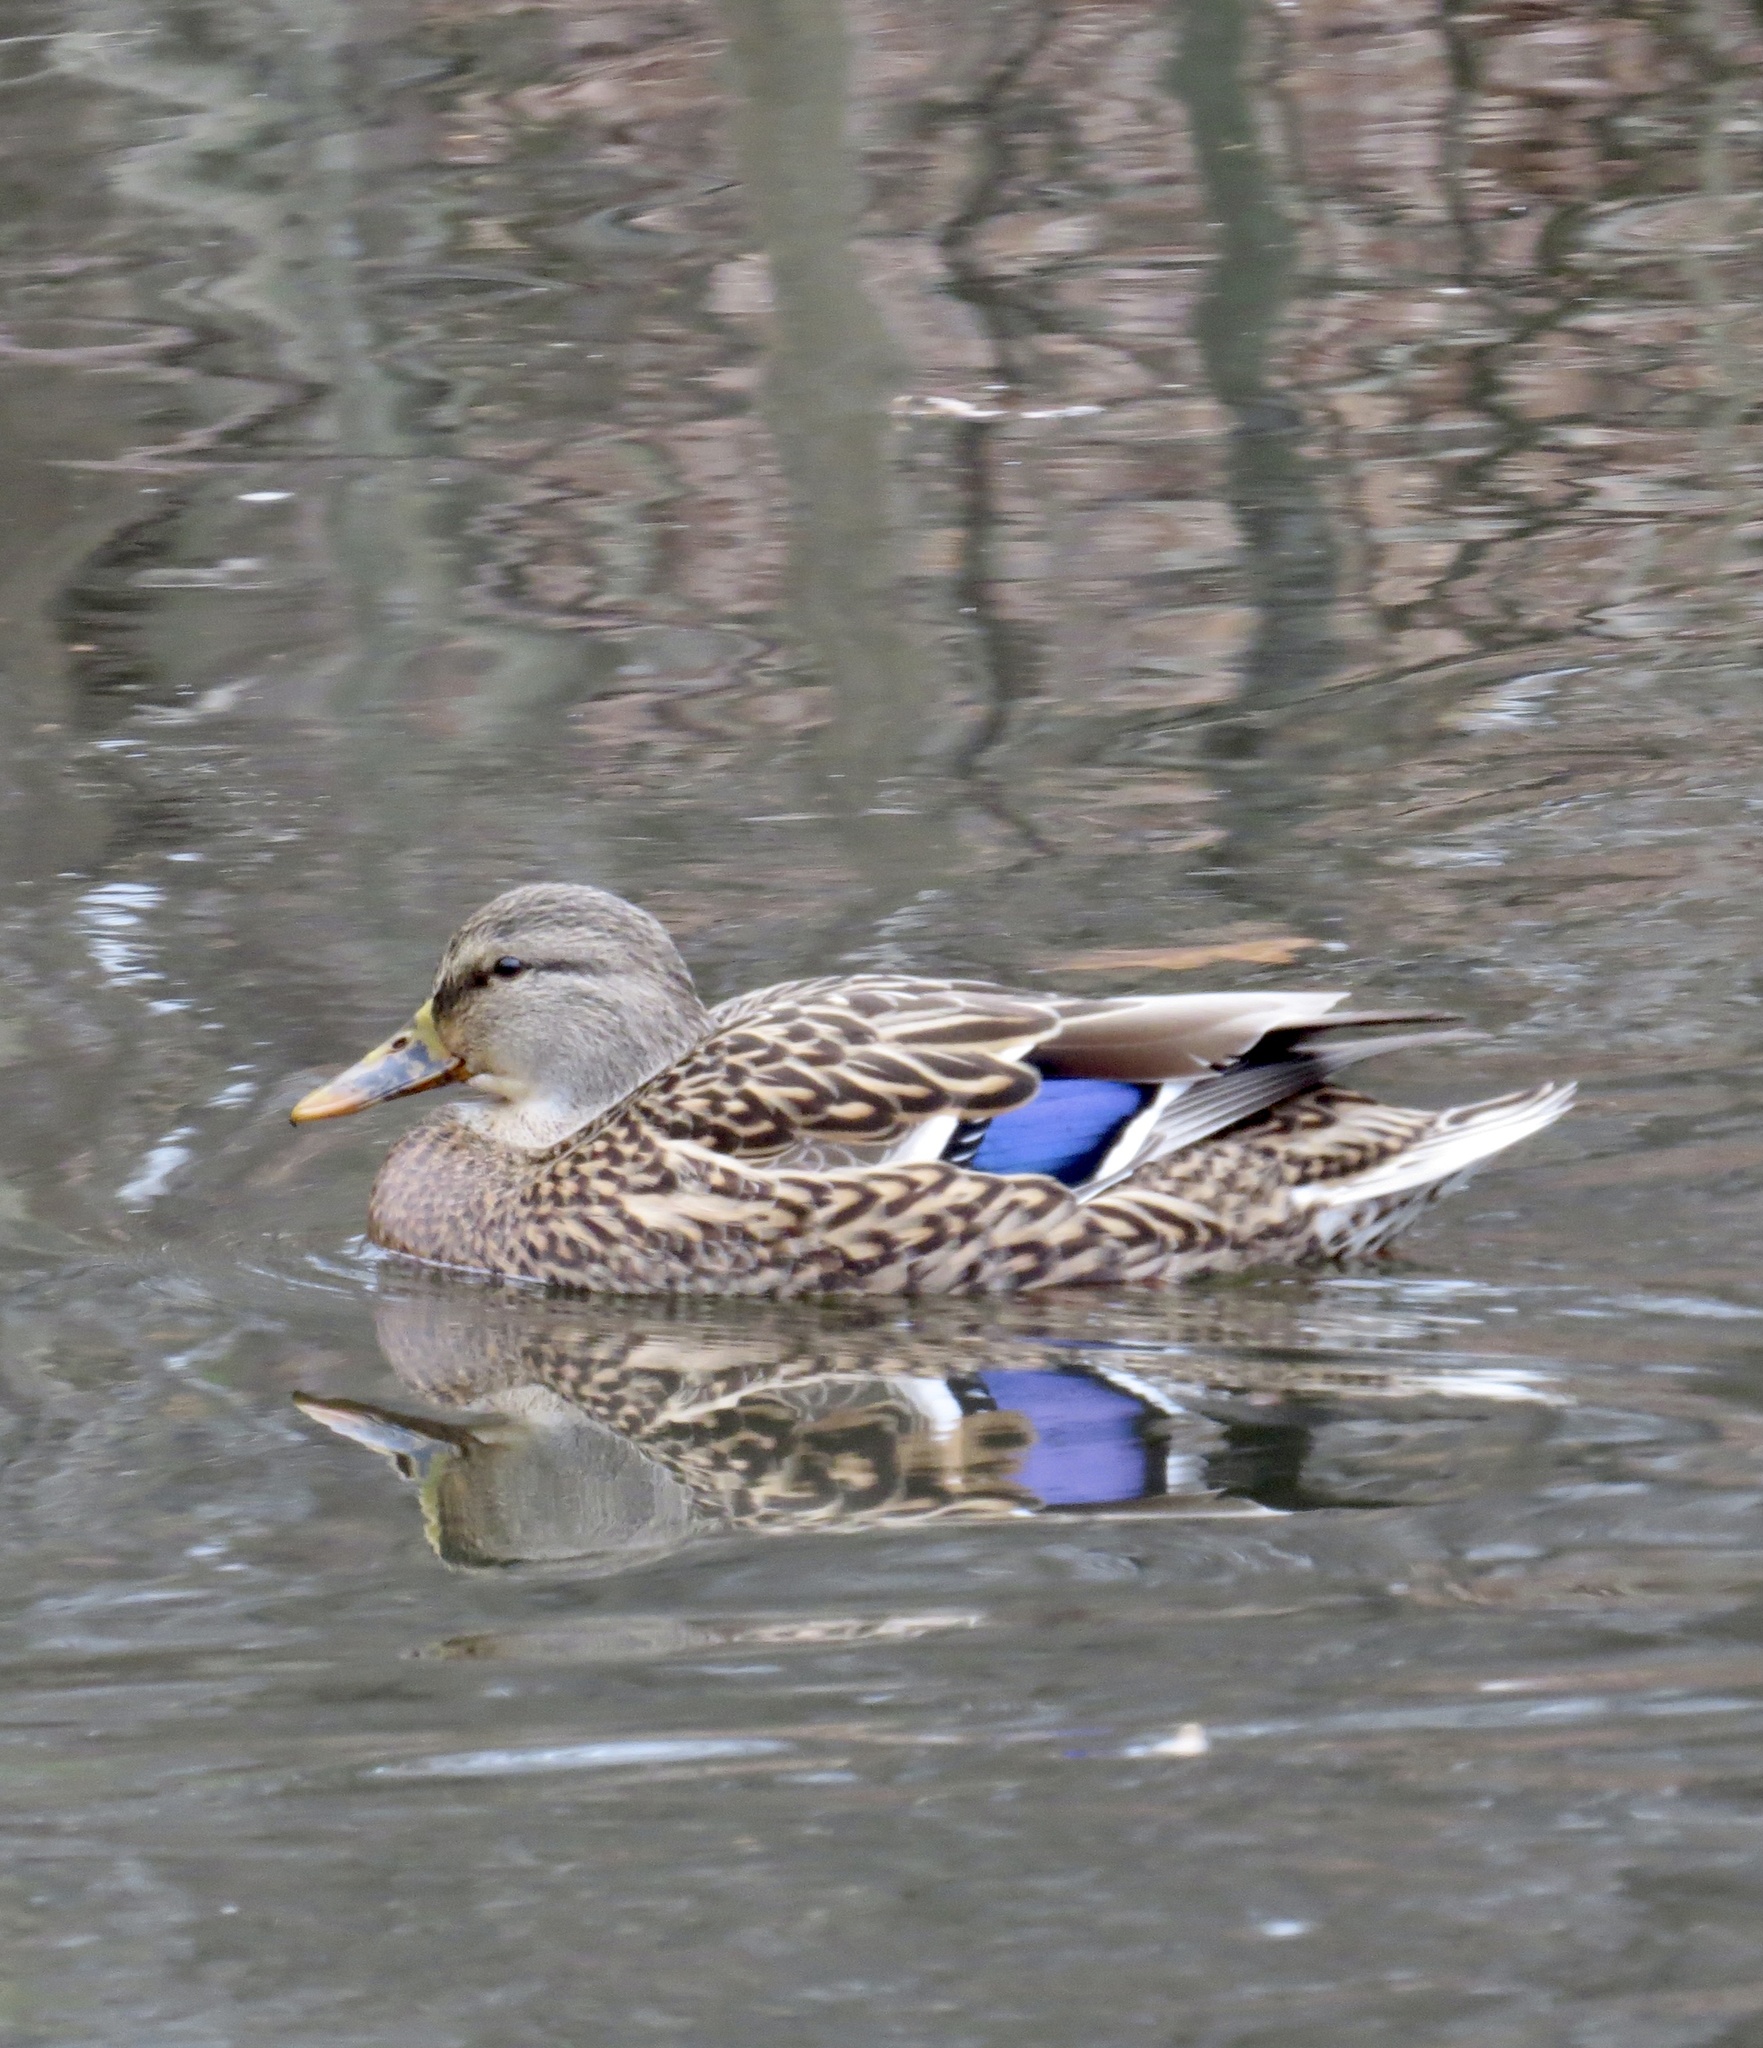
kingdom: Animalia
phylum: Chordata
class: Aves
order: Anseriformes
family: Anatidae
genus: Anas
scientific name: Anas platyrhynchos
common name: Mallard
